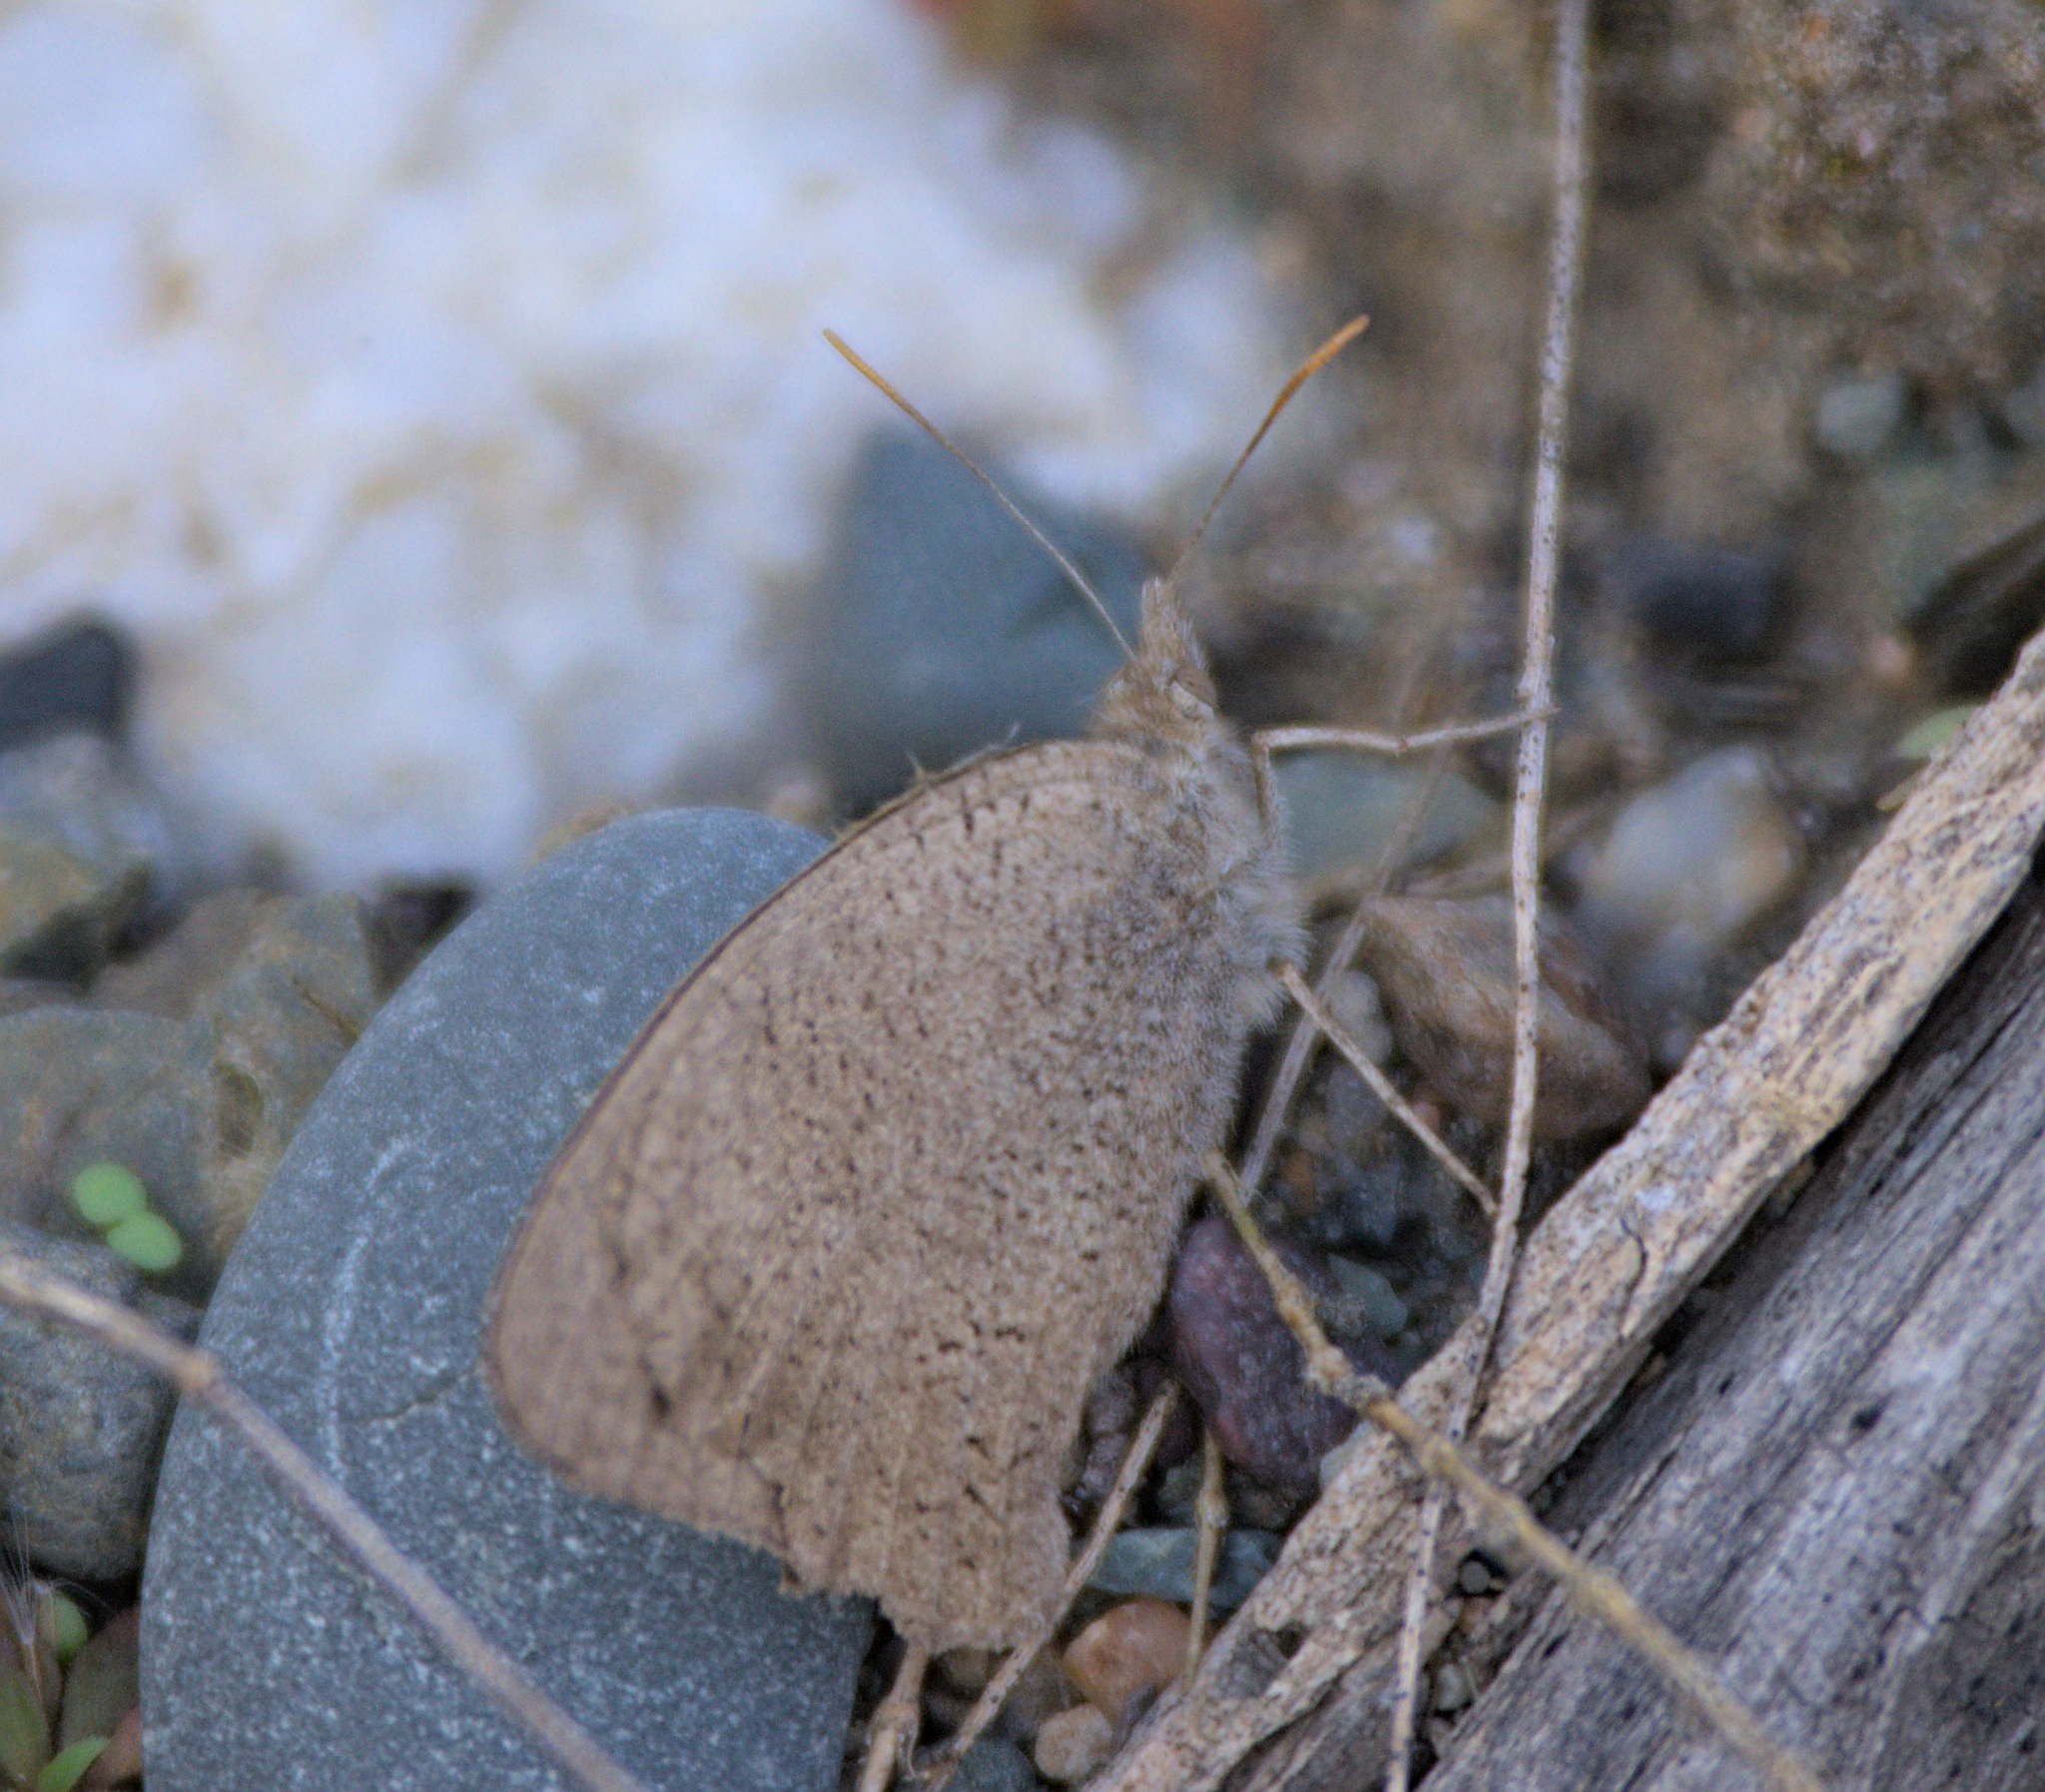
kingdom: Animalia
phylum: Arthropoda
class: Insecta
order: Lepidoptera
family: Nymphalidae
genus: Hyponephele
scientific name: Hyponephele lycaon
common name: Dusky meadow brown
